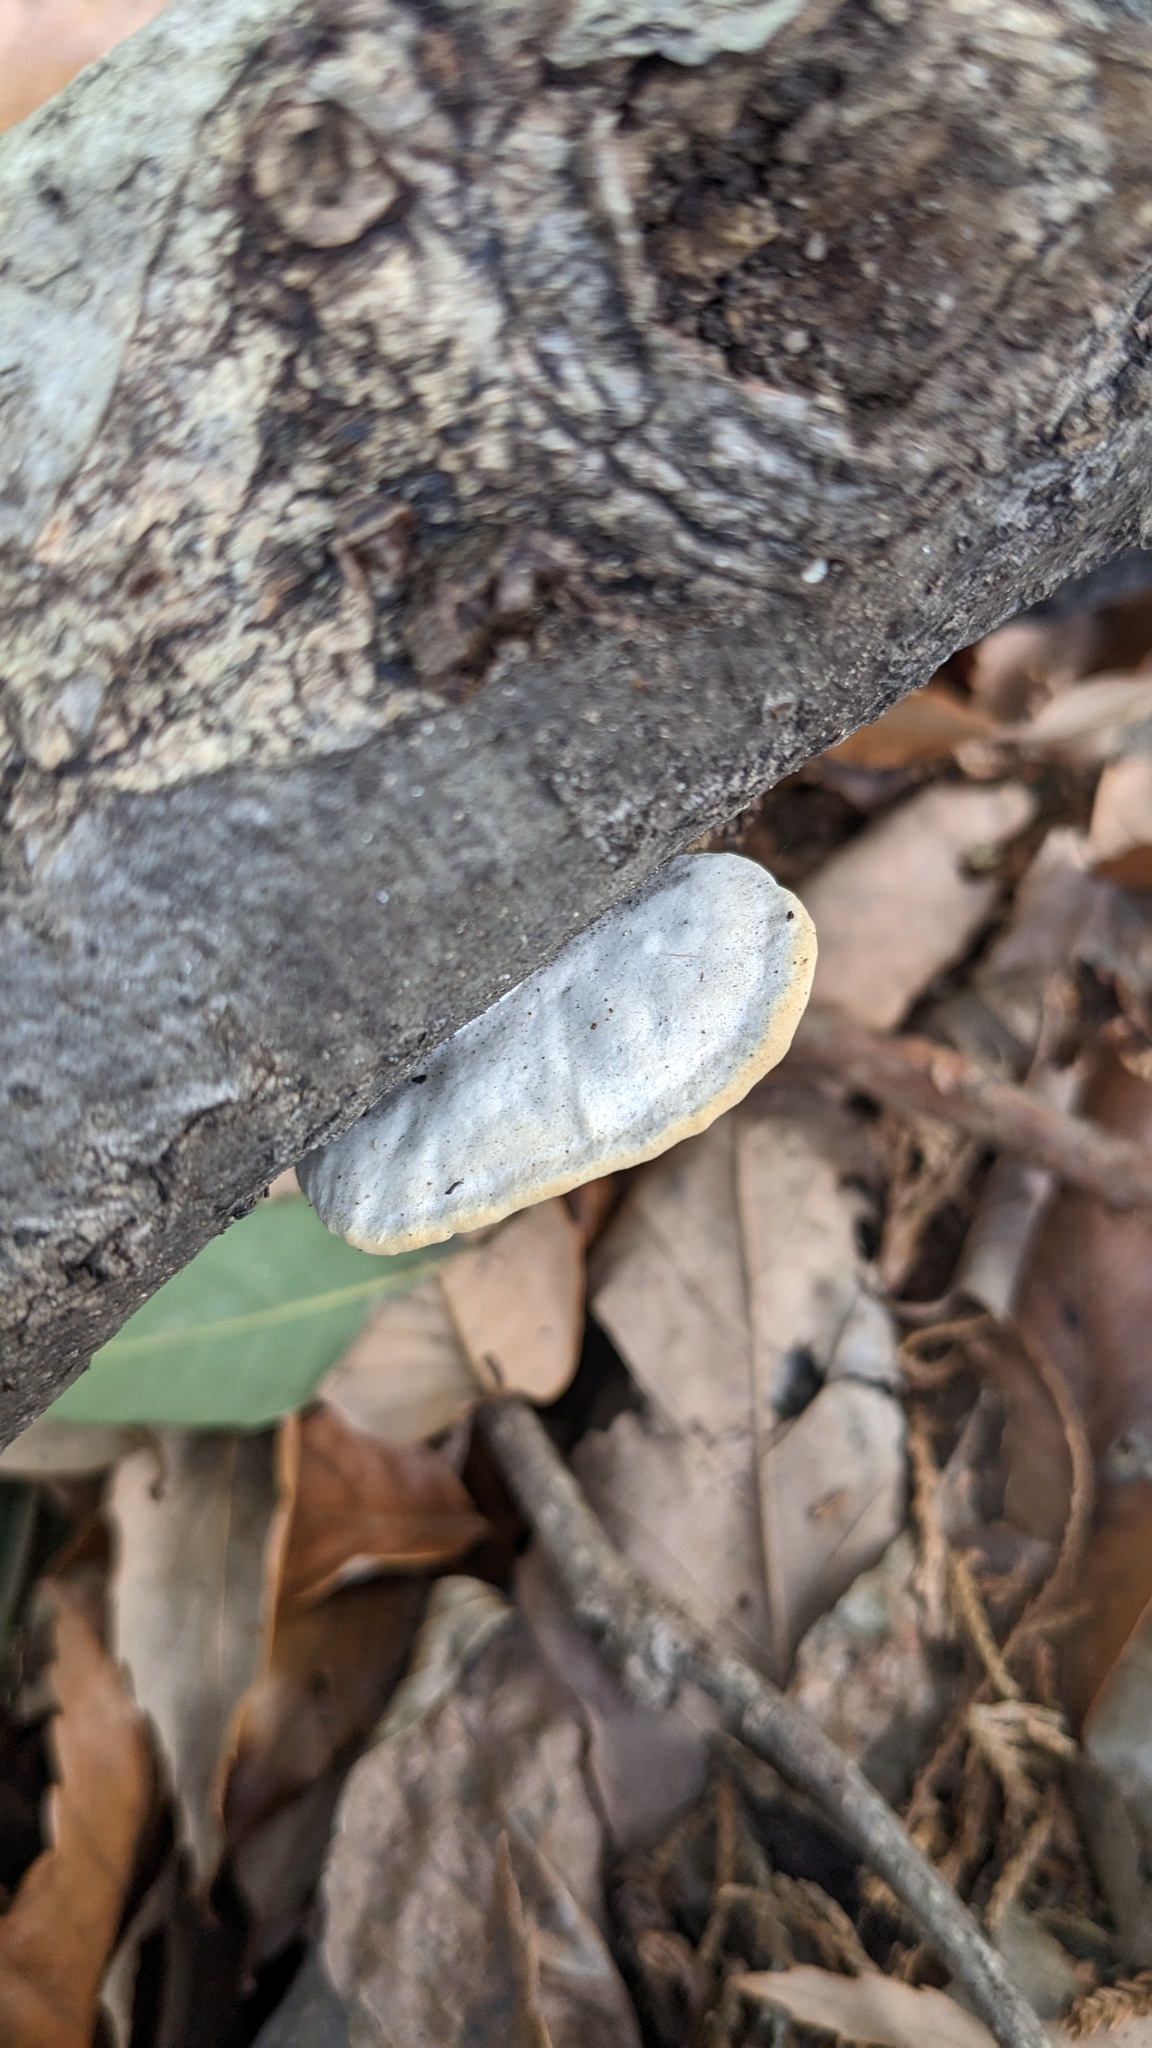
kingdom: Fungi
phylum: Basidiomycota
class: Agaricomycetes
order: Polyporales
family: Polyporaceae
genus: Trametes
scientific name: Trametes orientalis
